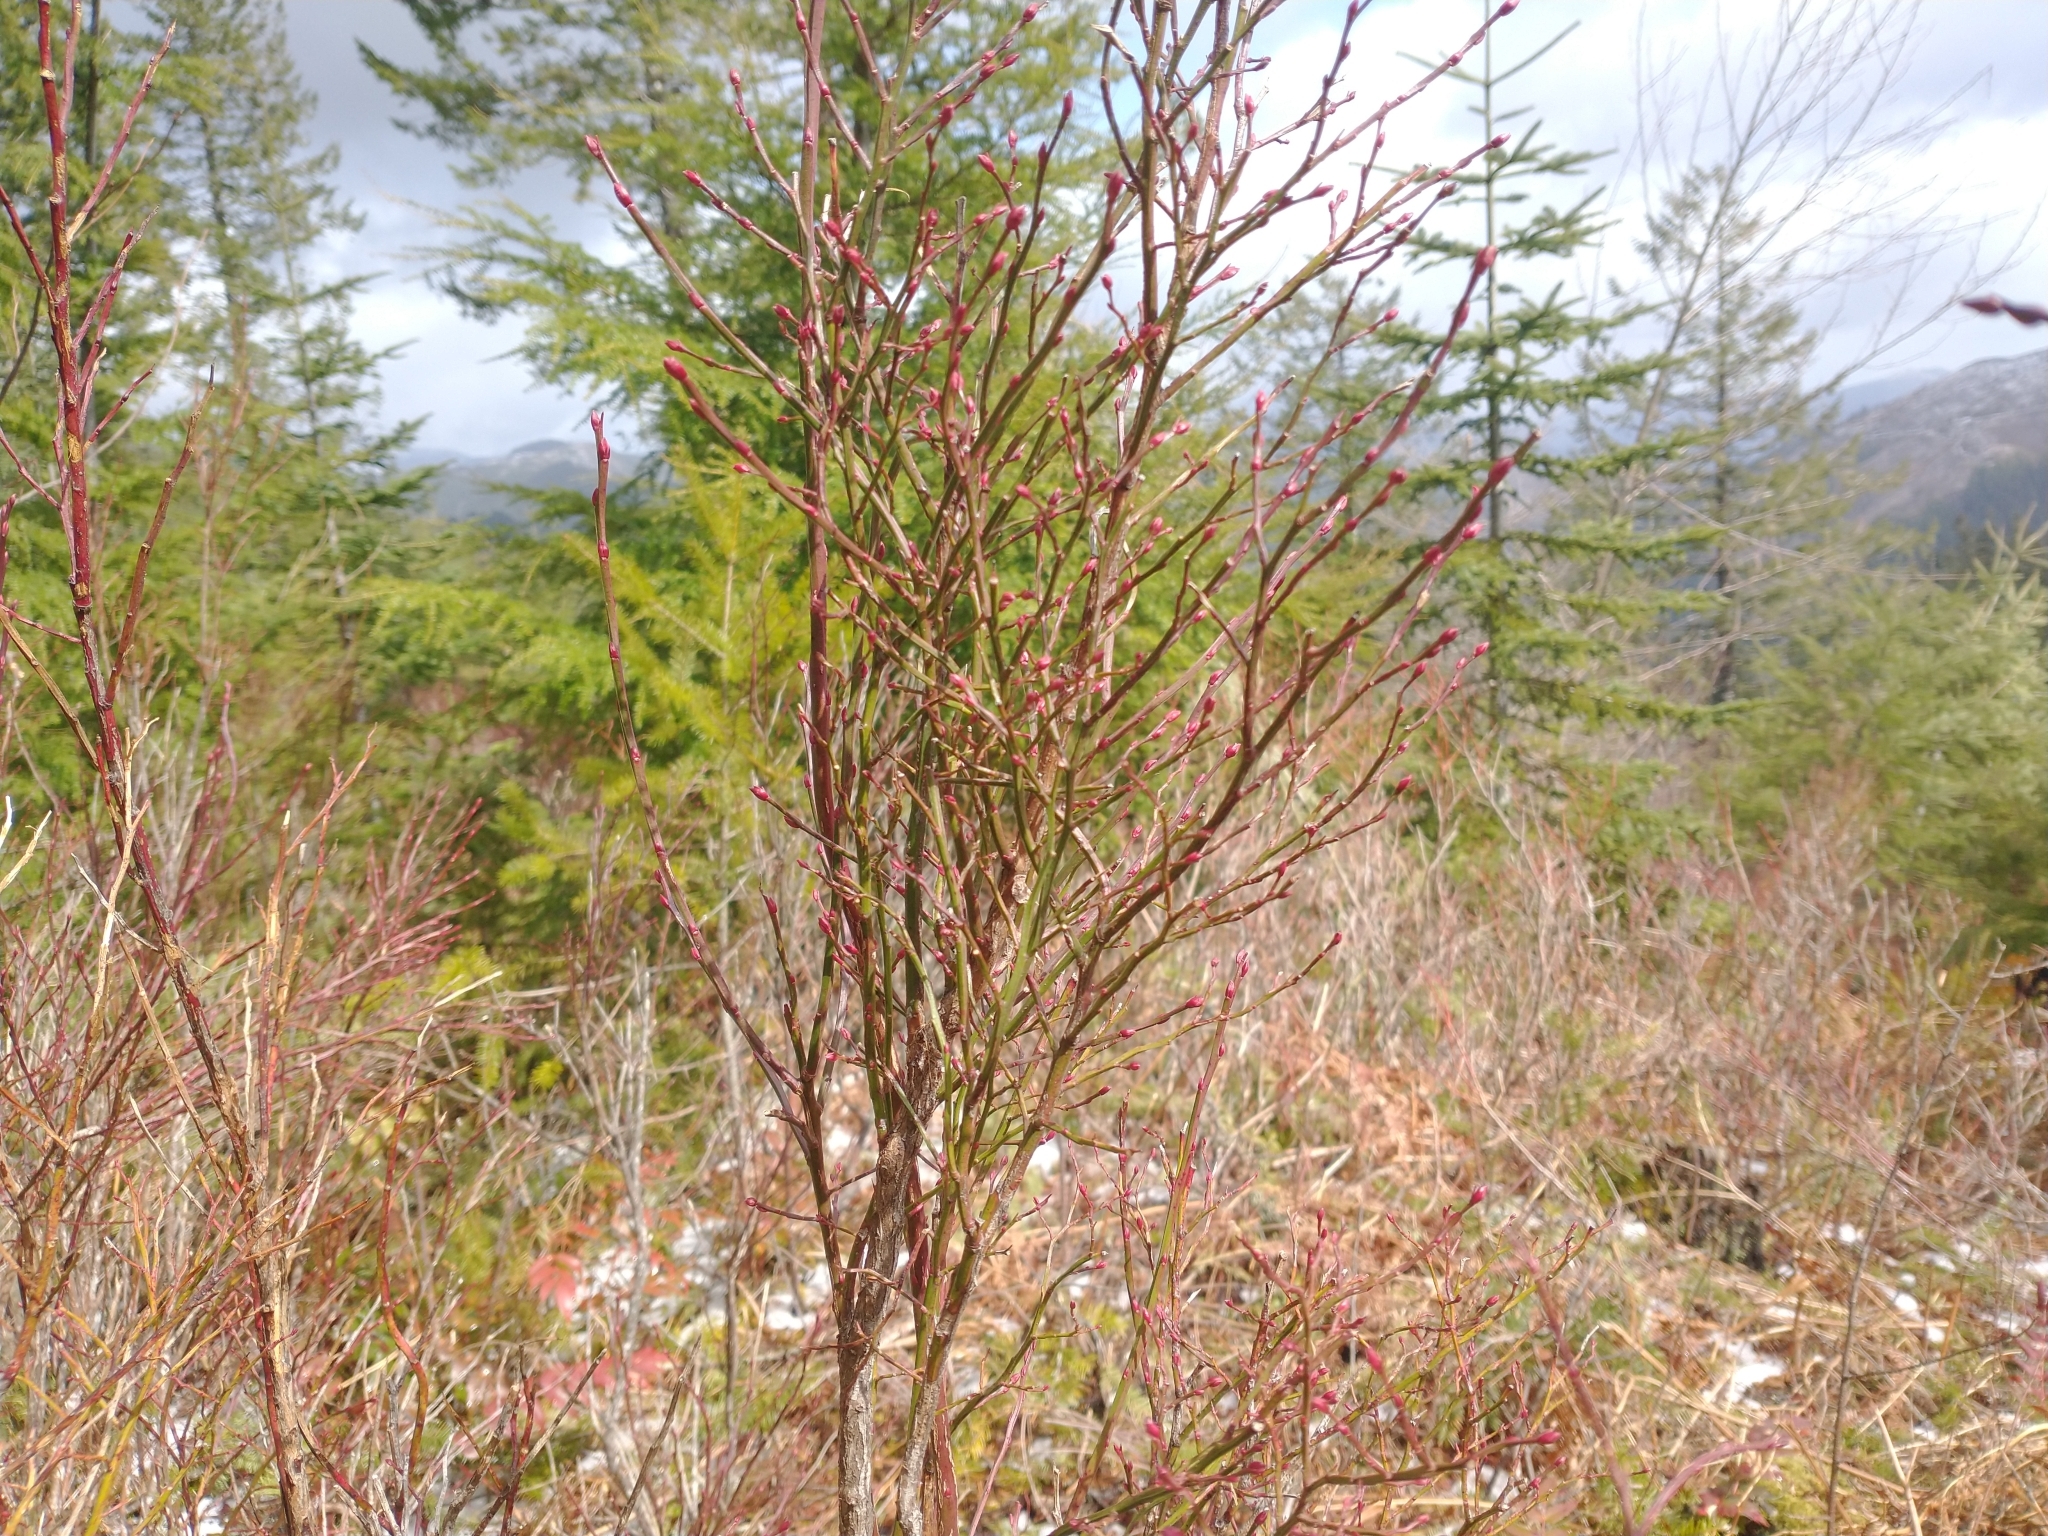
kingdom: Plantae
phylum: Tracheophyta
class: Magnoliopsida
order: Ericales
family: Ericaceae
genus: Vaccinium
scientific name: Vaccinium parvifolium
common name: Red-huckleberry
